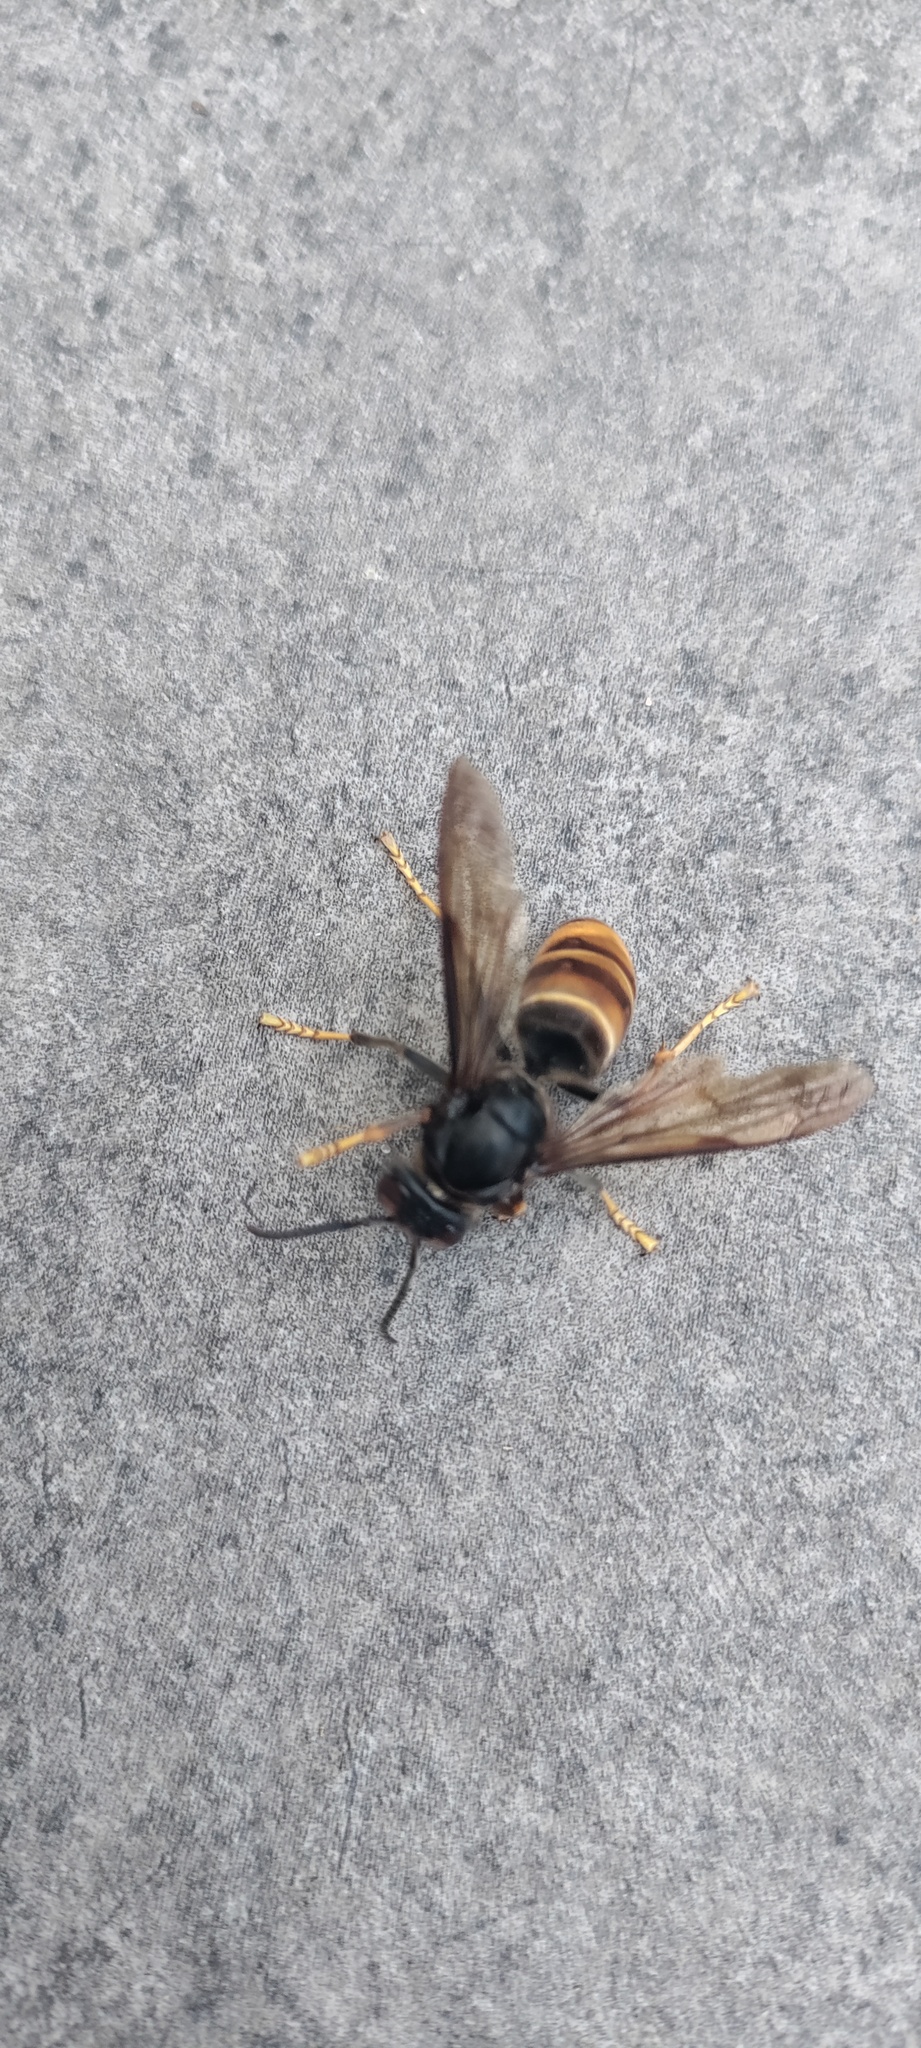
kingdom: Animalia
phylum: Arthropoda
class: Insecta
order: Hymenoptera
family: Vespidae
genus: Vespa
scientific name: Vespa velutina
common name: Asian hornet
